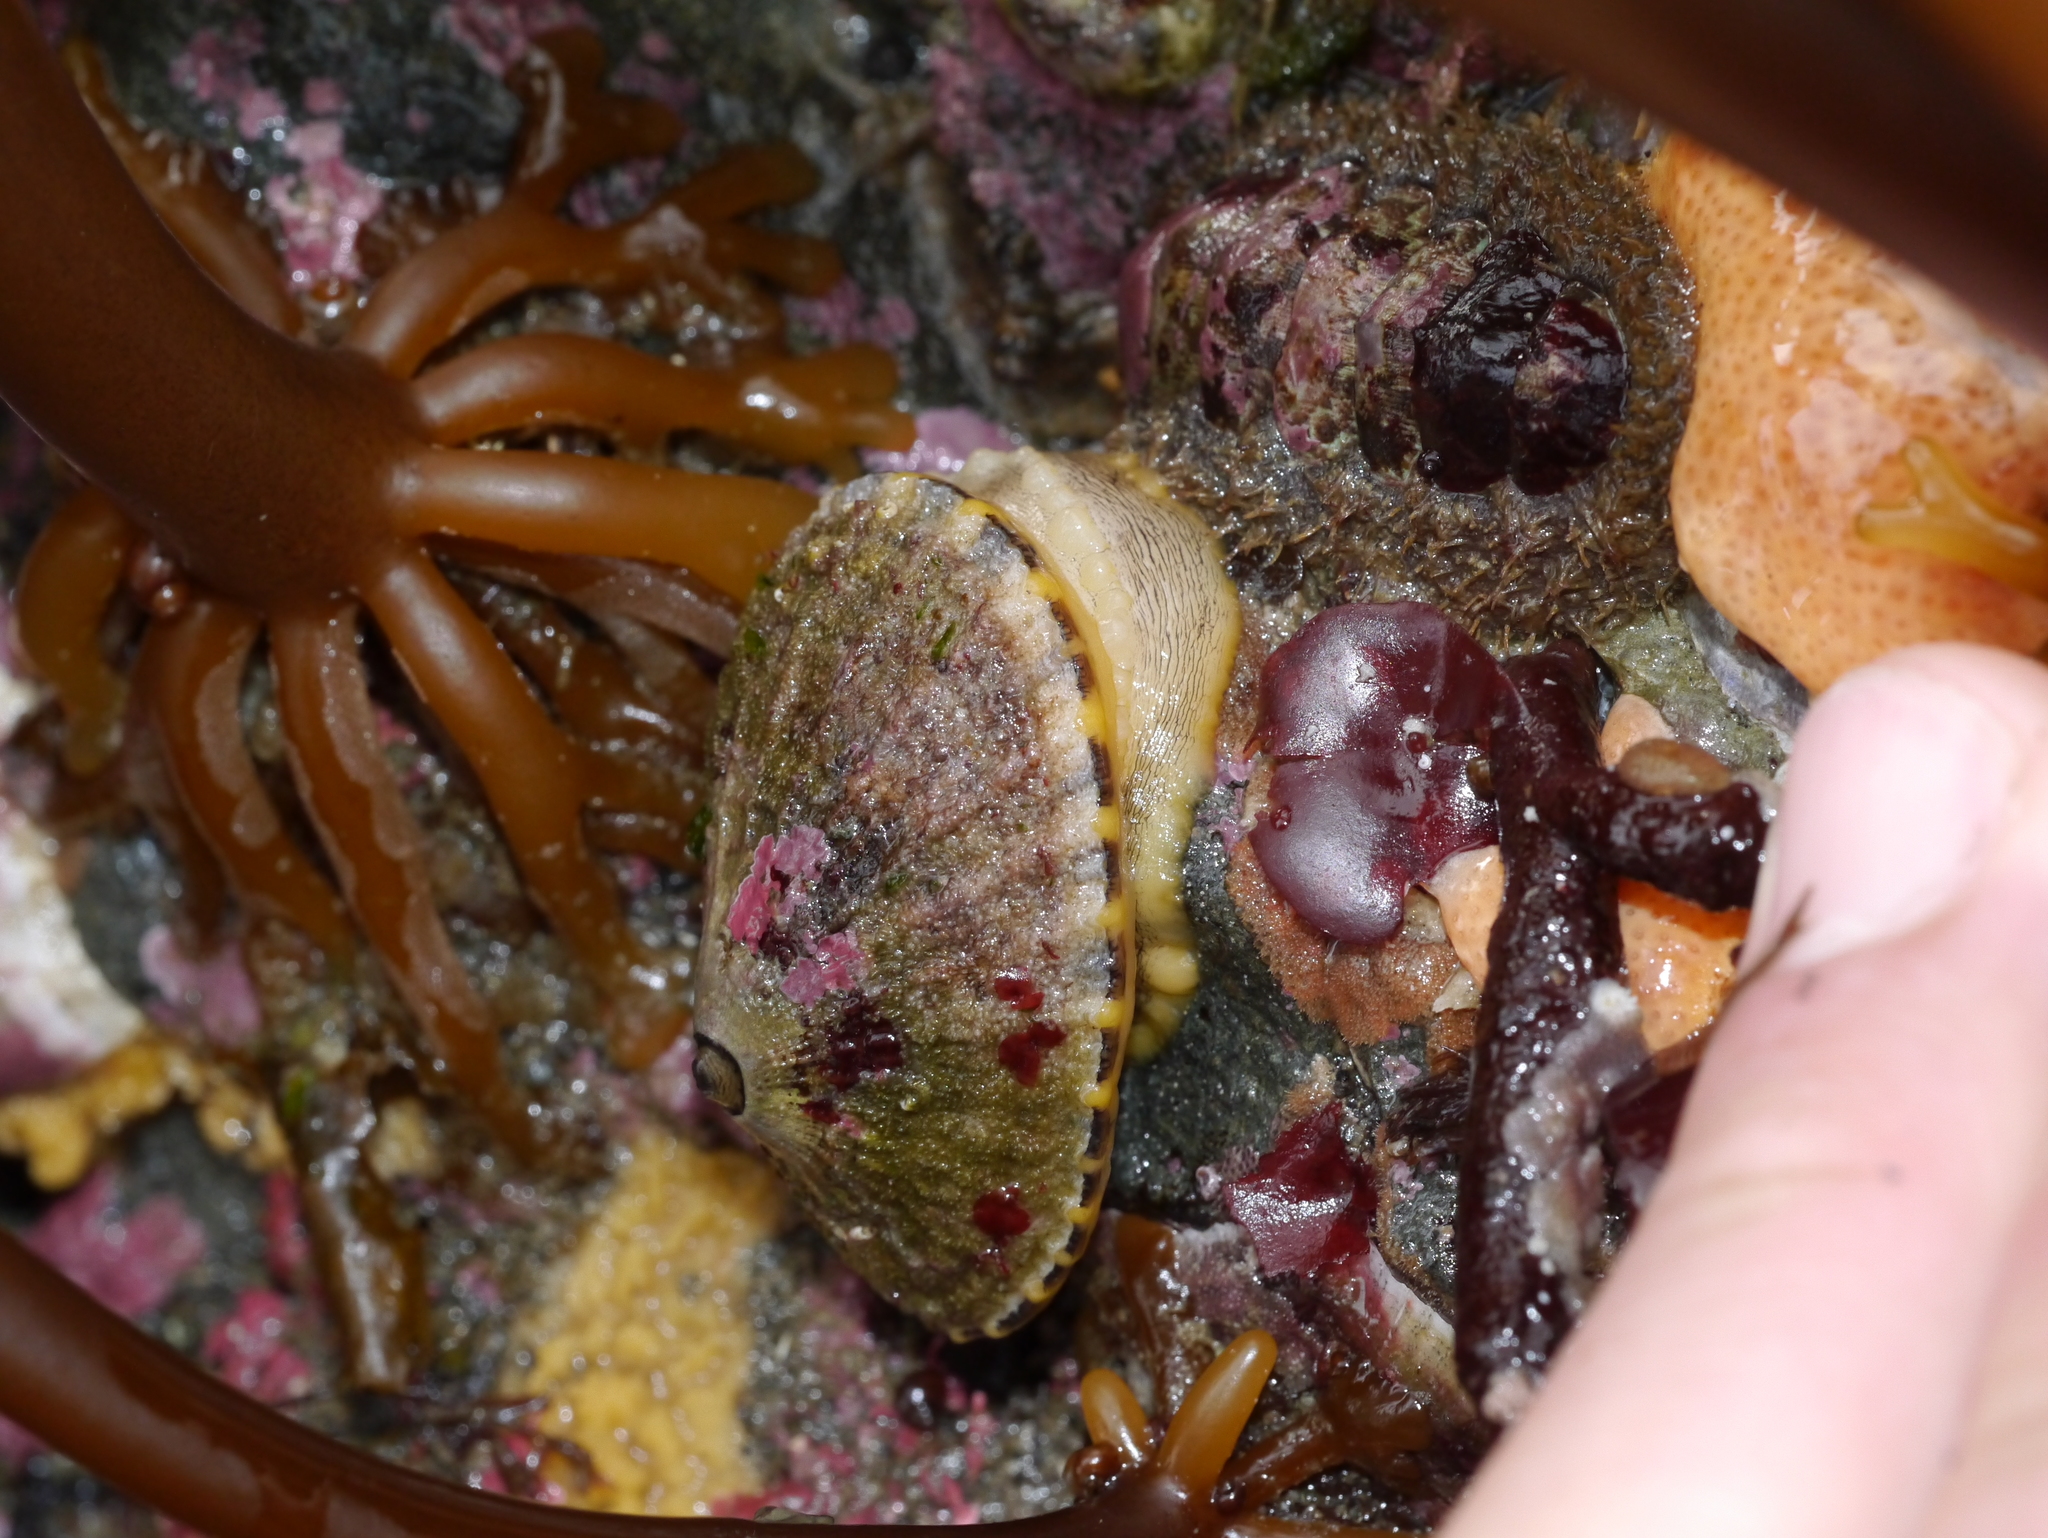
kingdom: Animalia
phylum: Mollusca
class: Gastropoda
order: Lepetellida
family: Fissurellidae
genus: Diodora
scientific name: Diodora aspera
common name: Rough keyhole limpet
